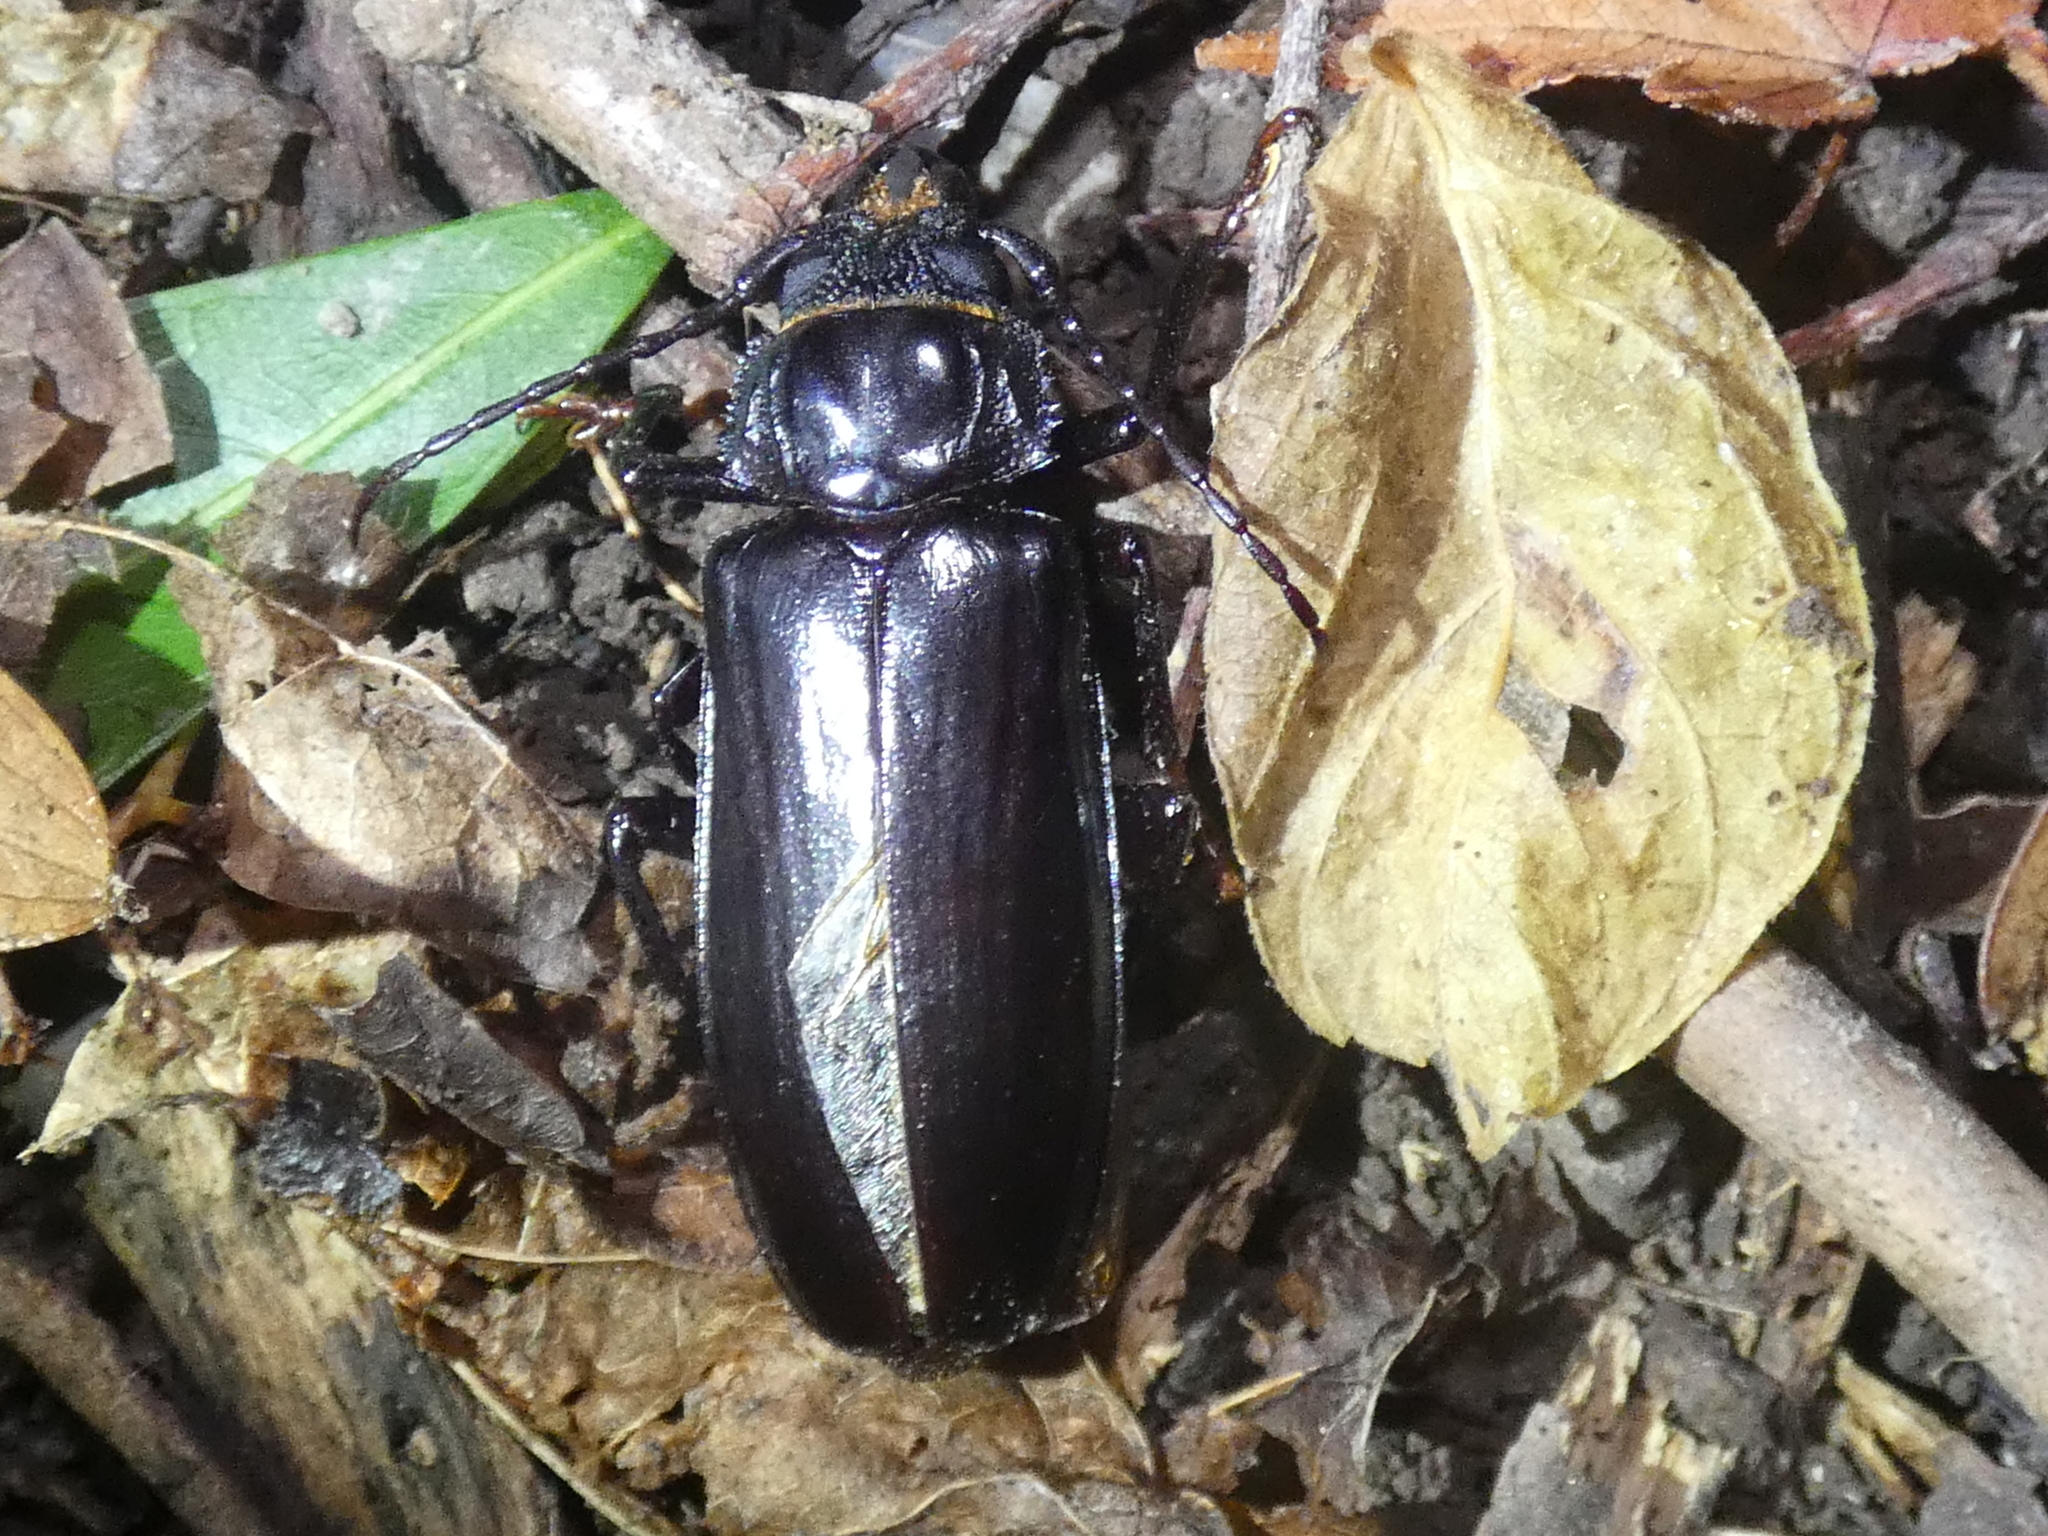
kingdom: Animalia
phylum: Arthropoda
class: Insecta
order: Coleoptera
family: Cerambycidae
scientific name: Cerambycidae
